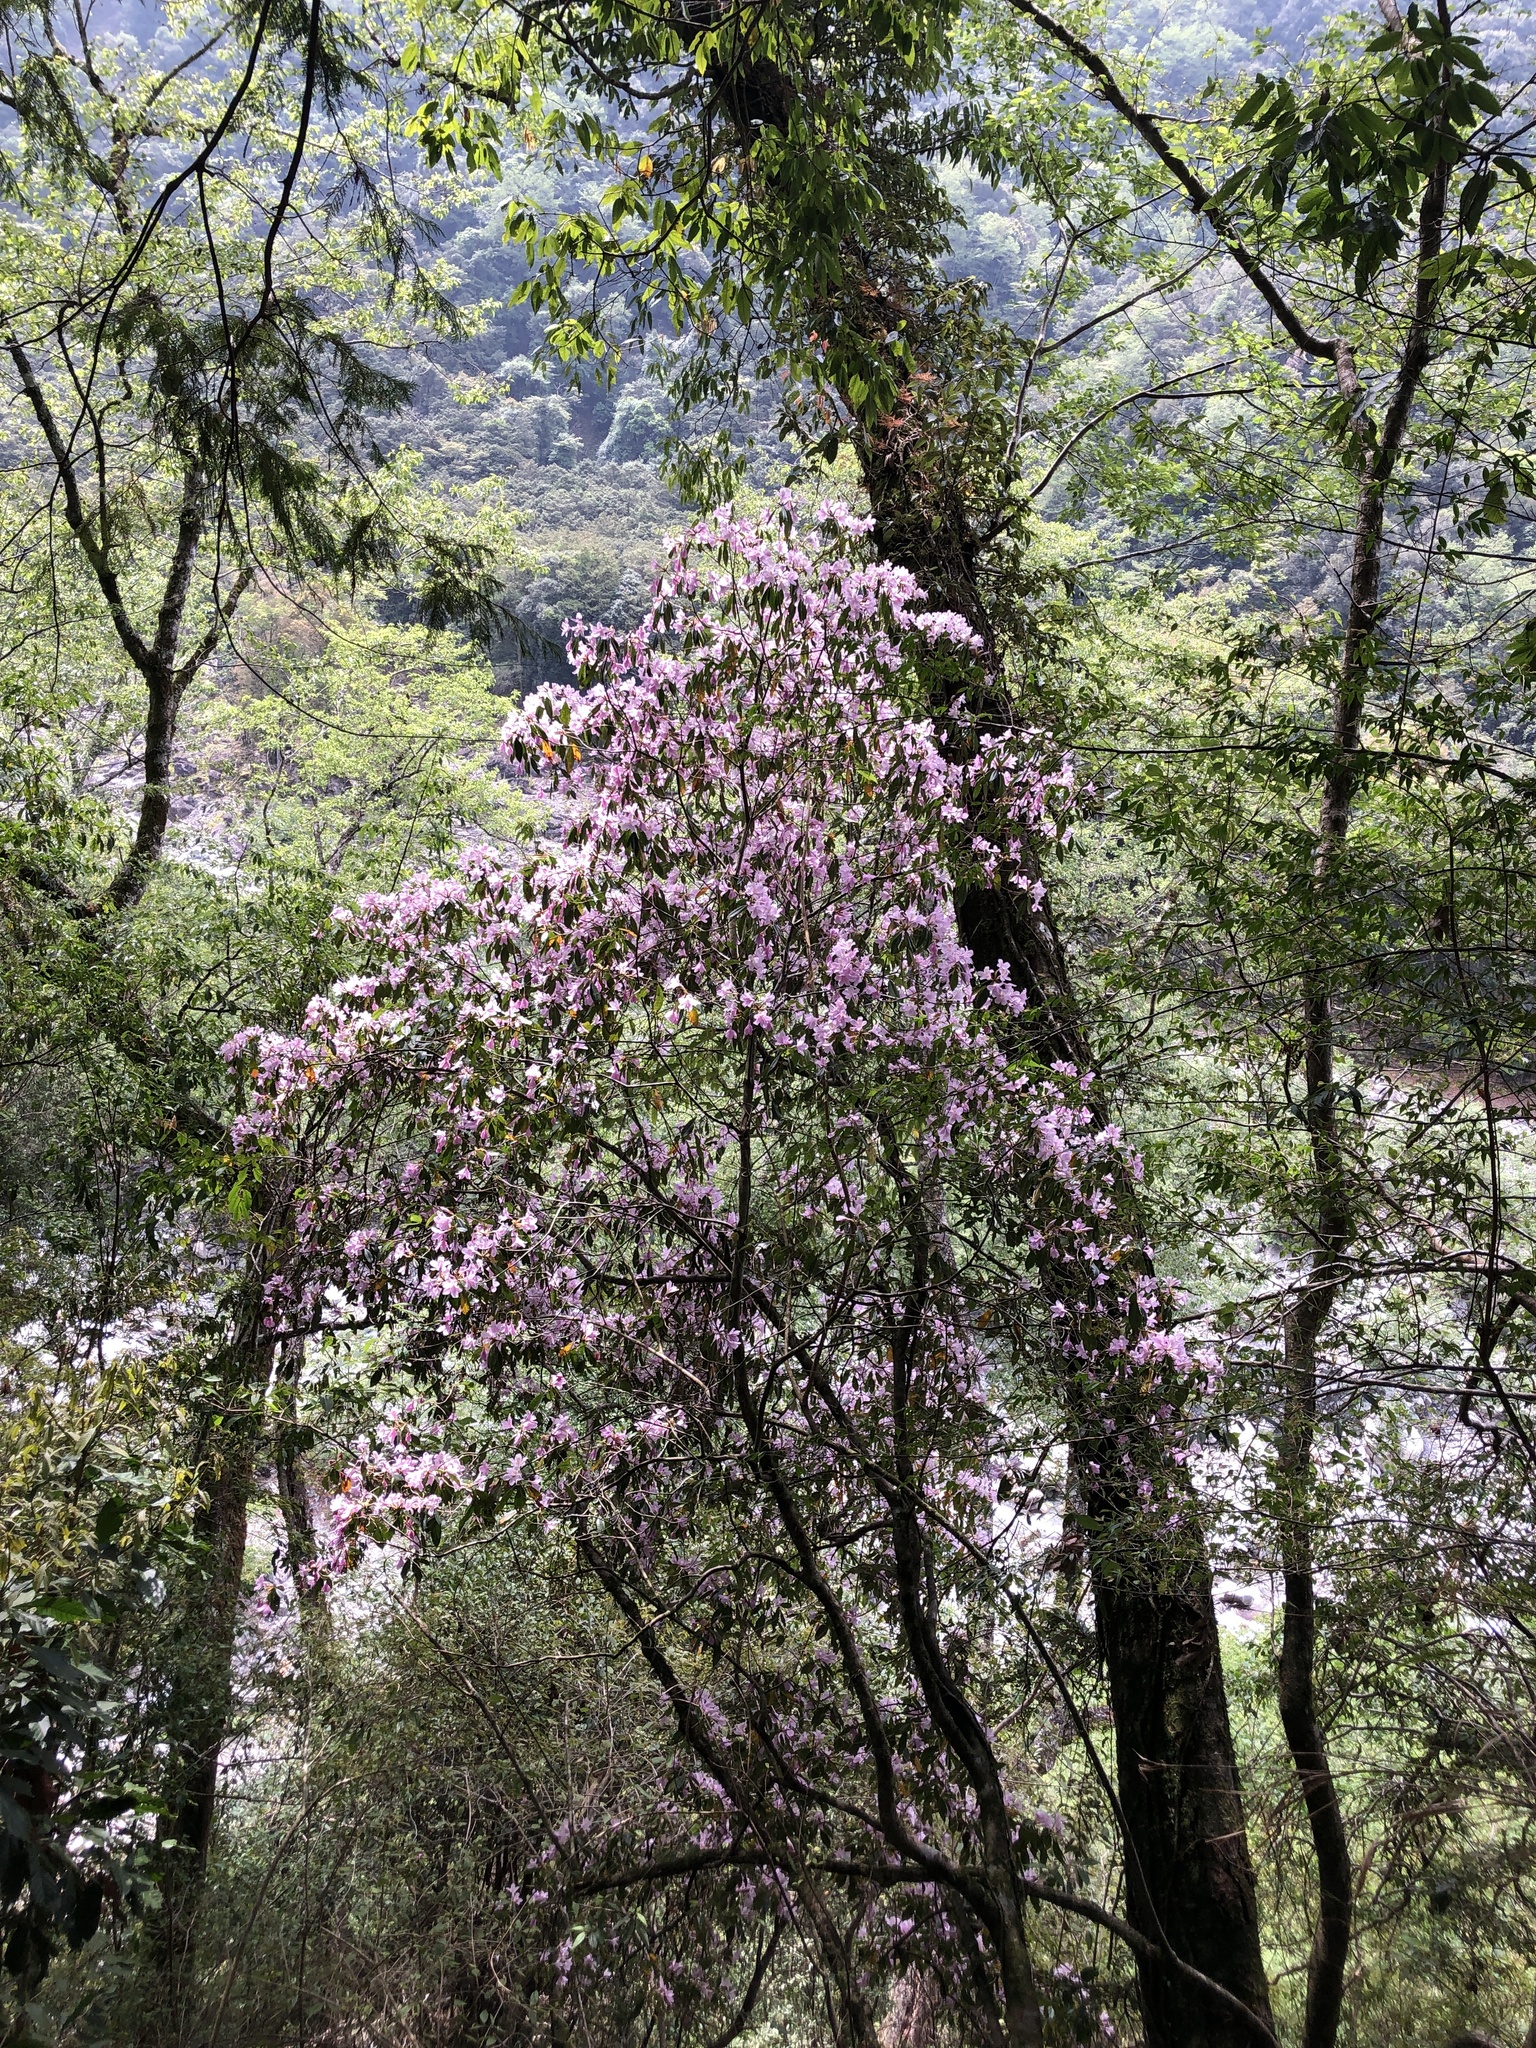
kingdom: Plantae
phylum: Tracheophyta
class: Magnoliopsida
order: Ericales
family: Ericaceae
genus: Rhododendron
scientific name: Rhododendron latoucheae
